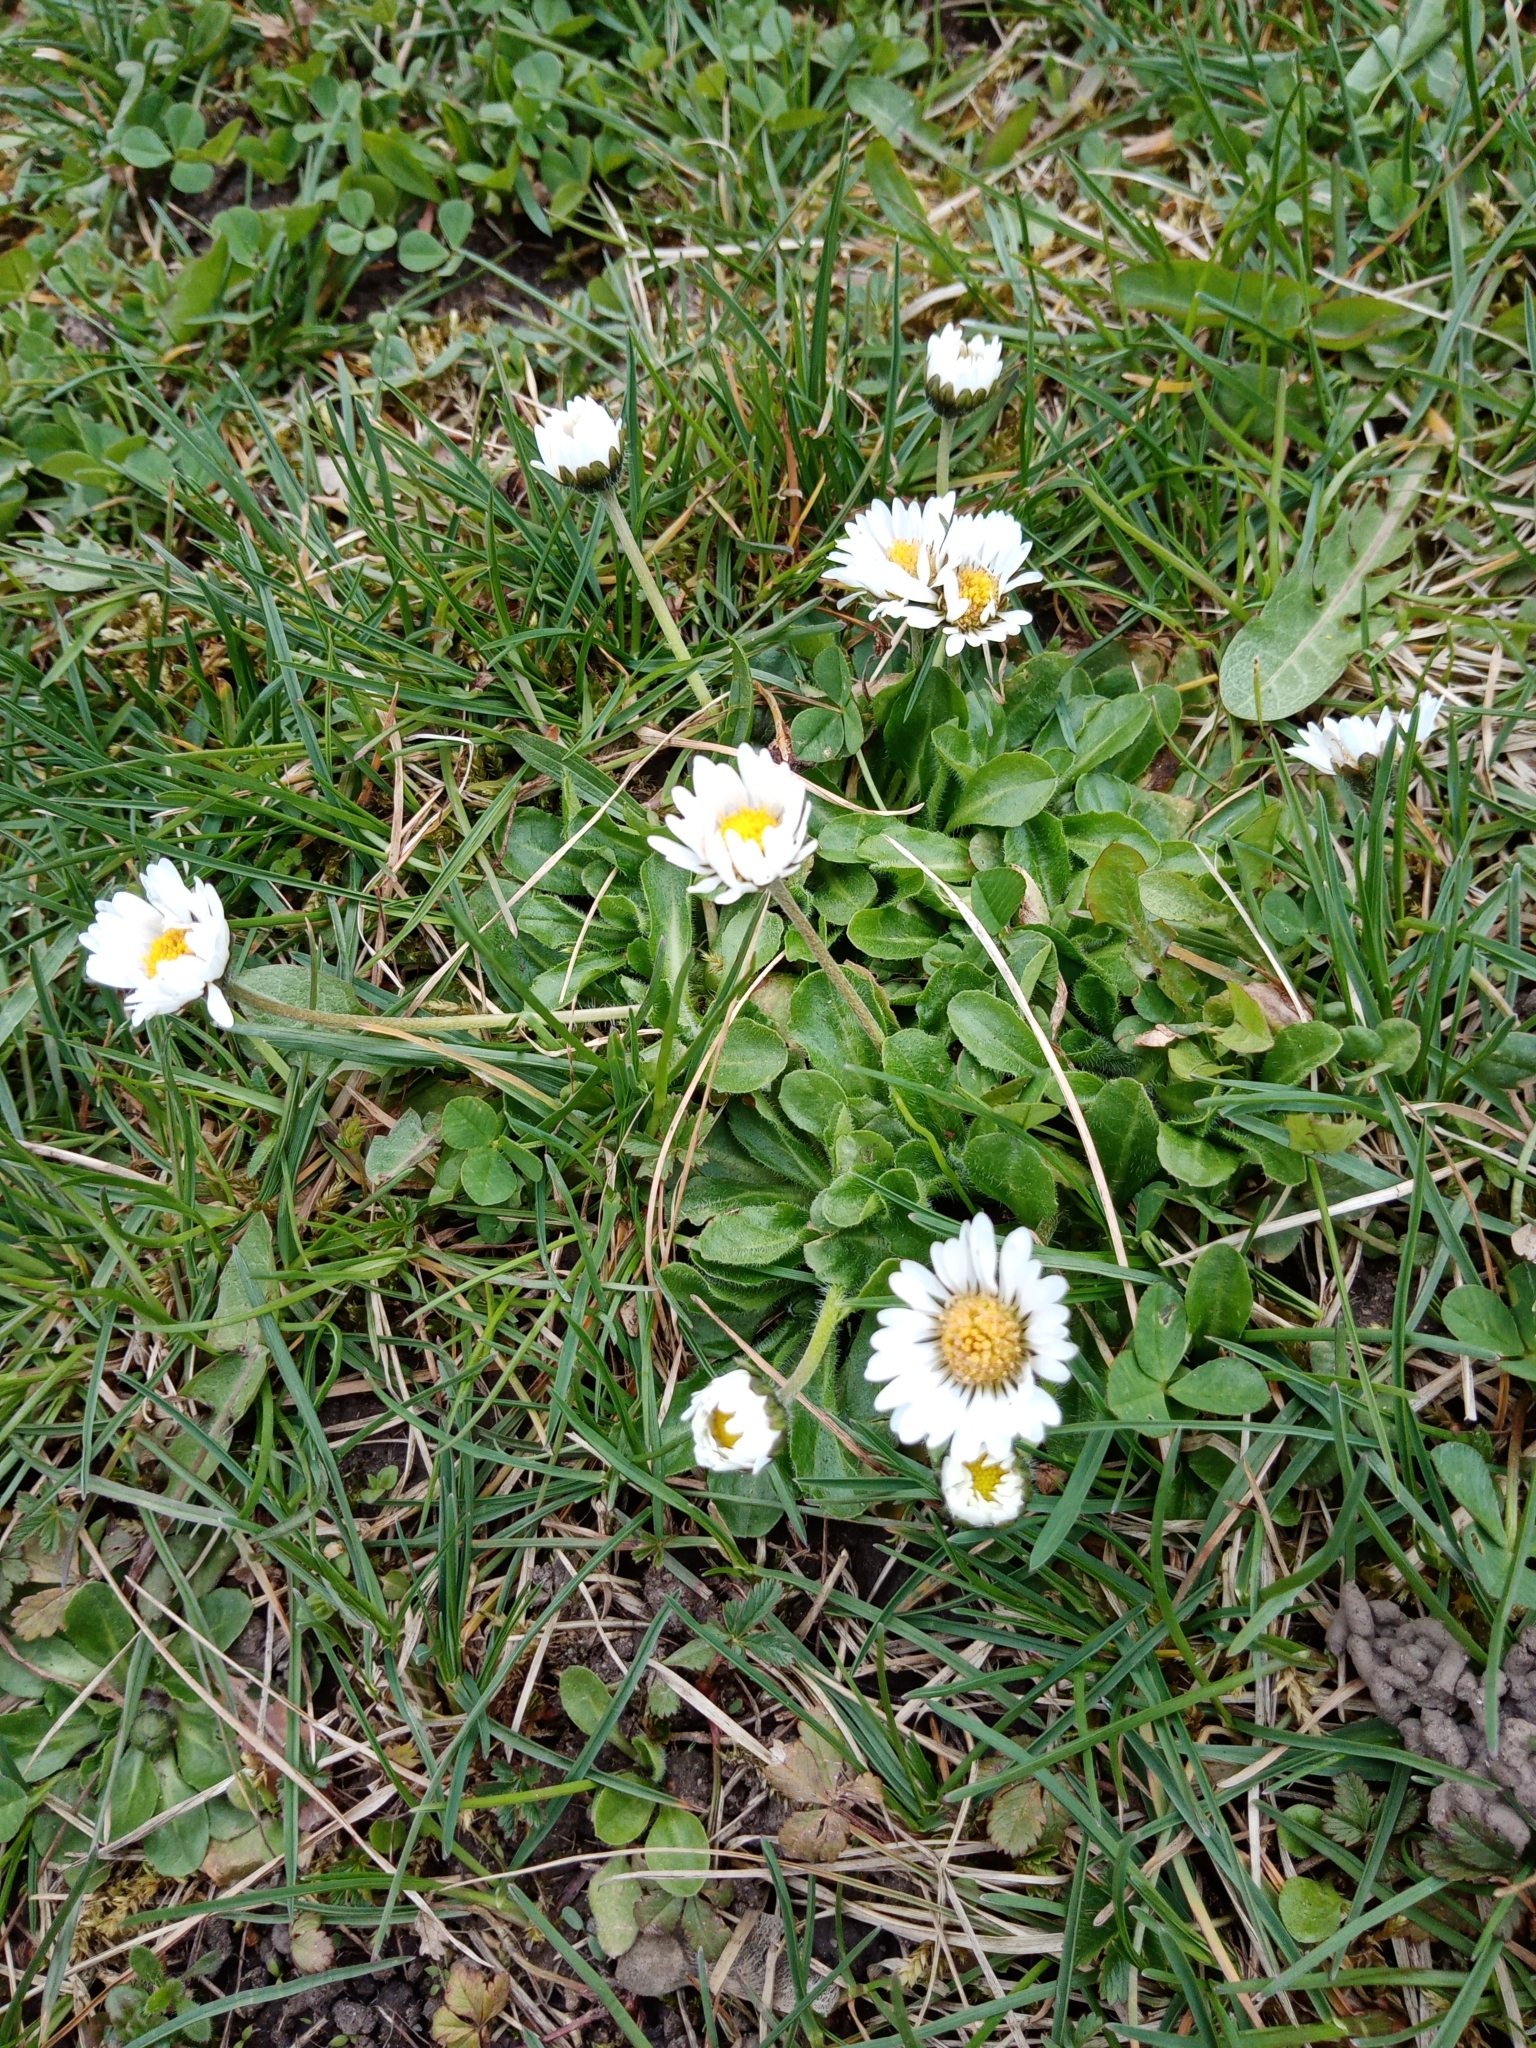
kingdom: Plantae
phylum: Tracheophyta
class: Magnoliopsida
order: Asterales
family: Asteraceae
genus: Bellis
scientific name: Bellis perennis
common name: Lawndaisy
